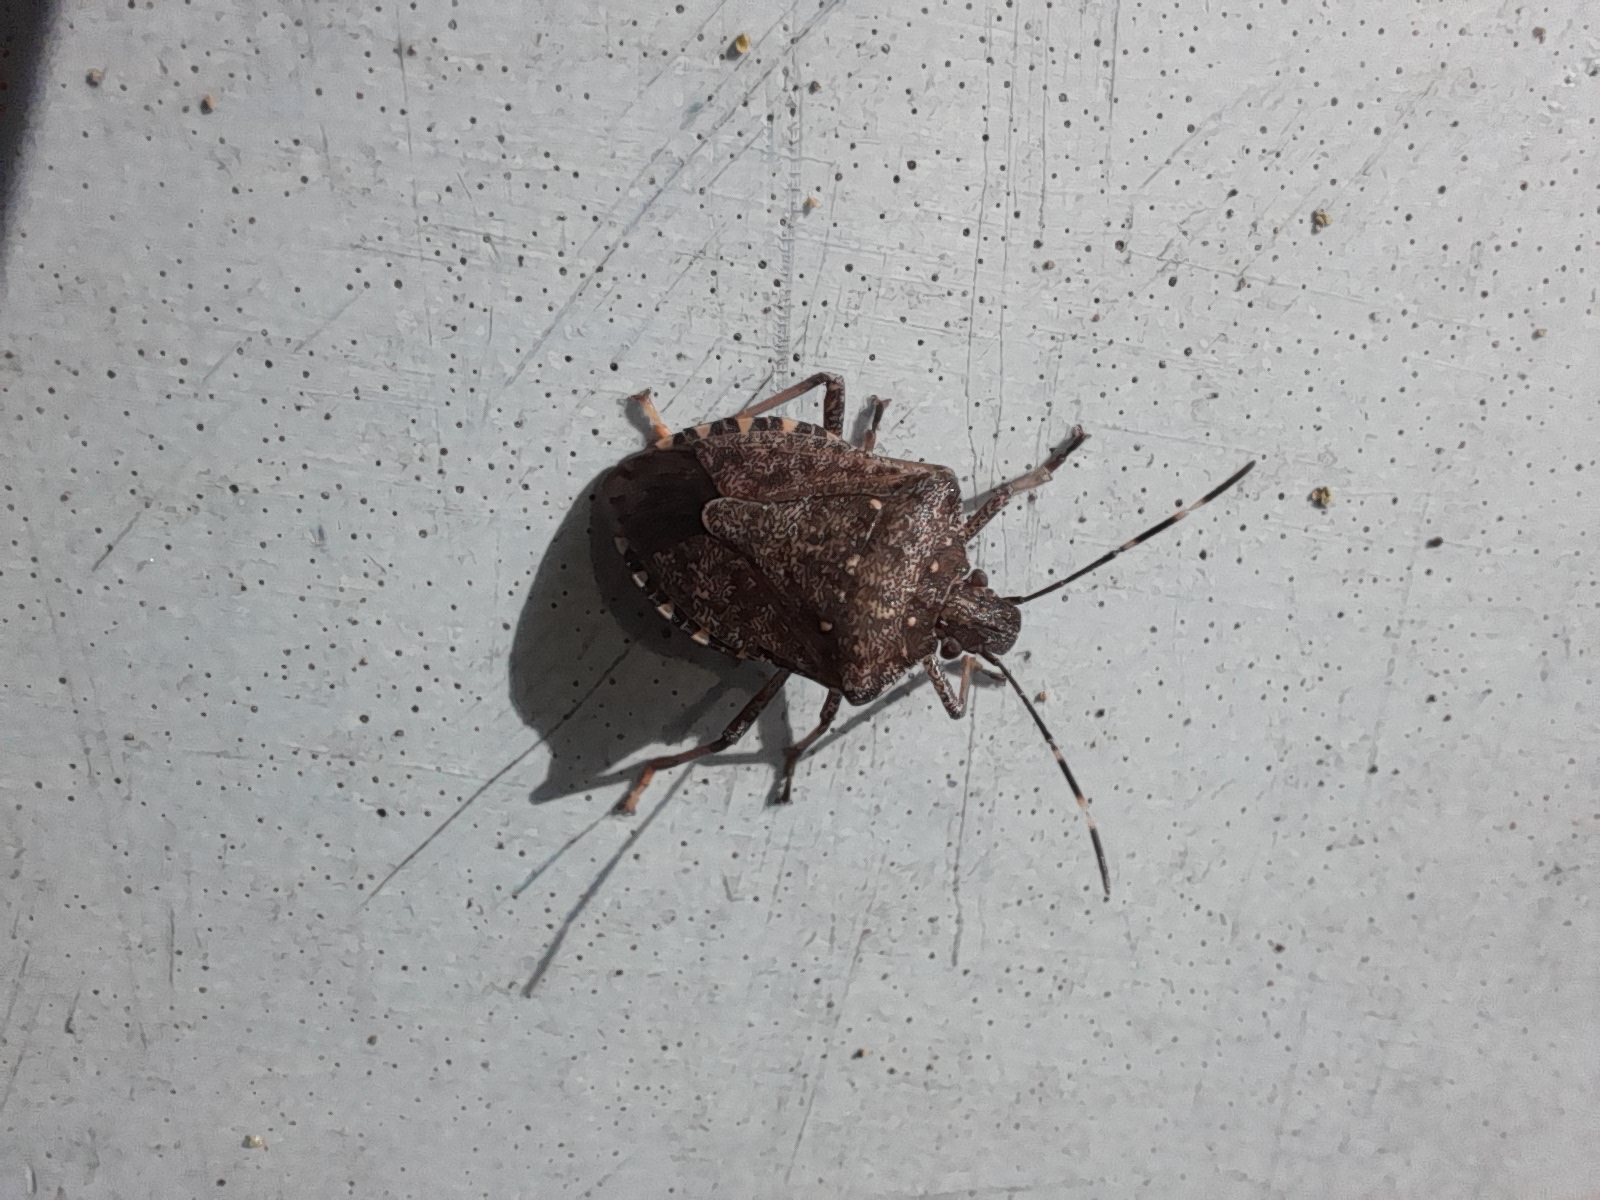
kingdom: Animalia
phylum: Arthropoda
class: Insecta
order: Hemiptera
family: Pentatomidae
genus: Halyomorpha
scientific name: Halyomorpha halys
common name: Brown marmorated stink bug
